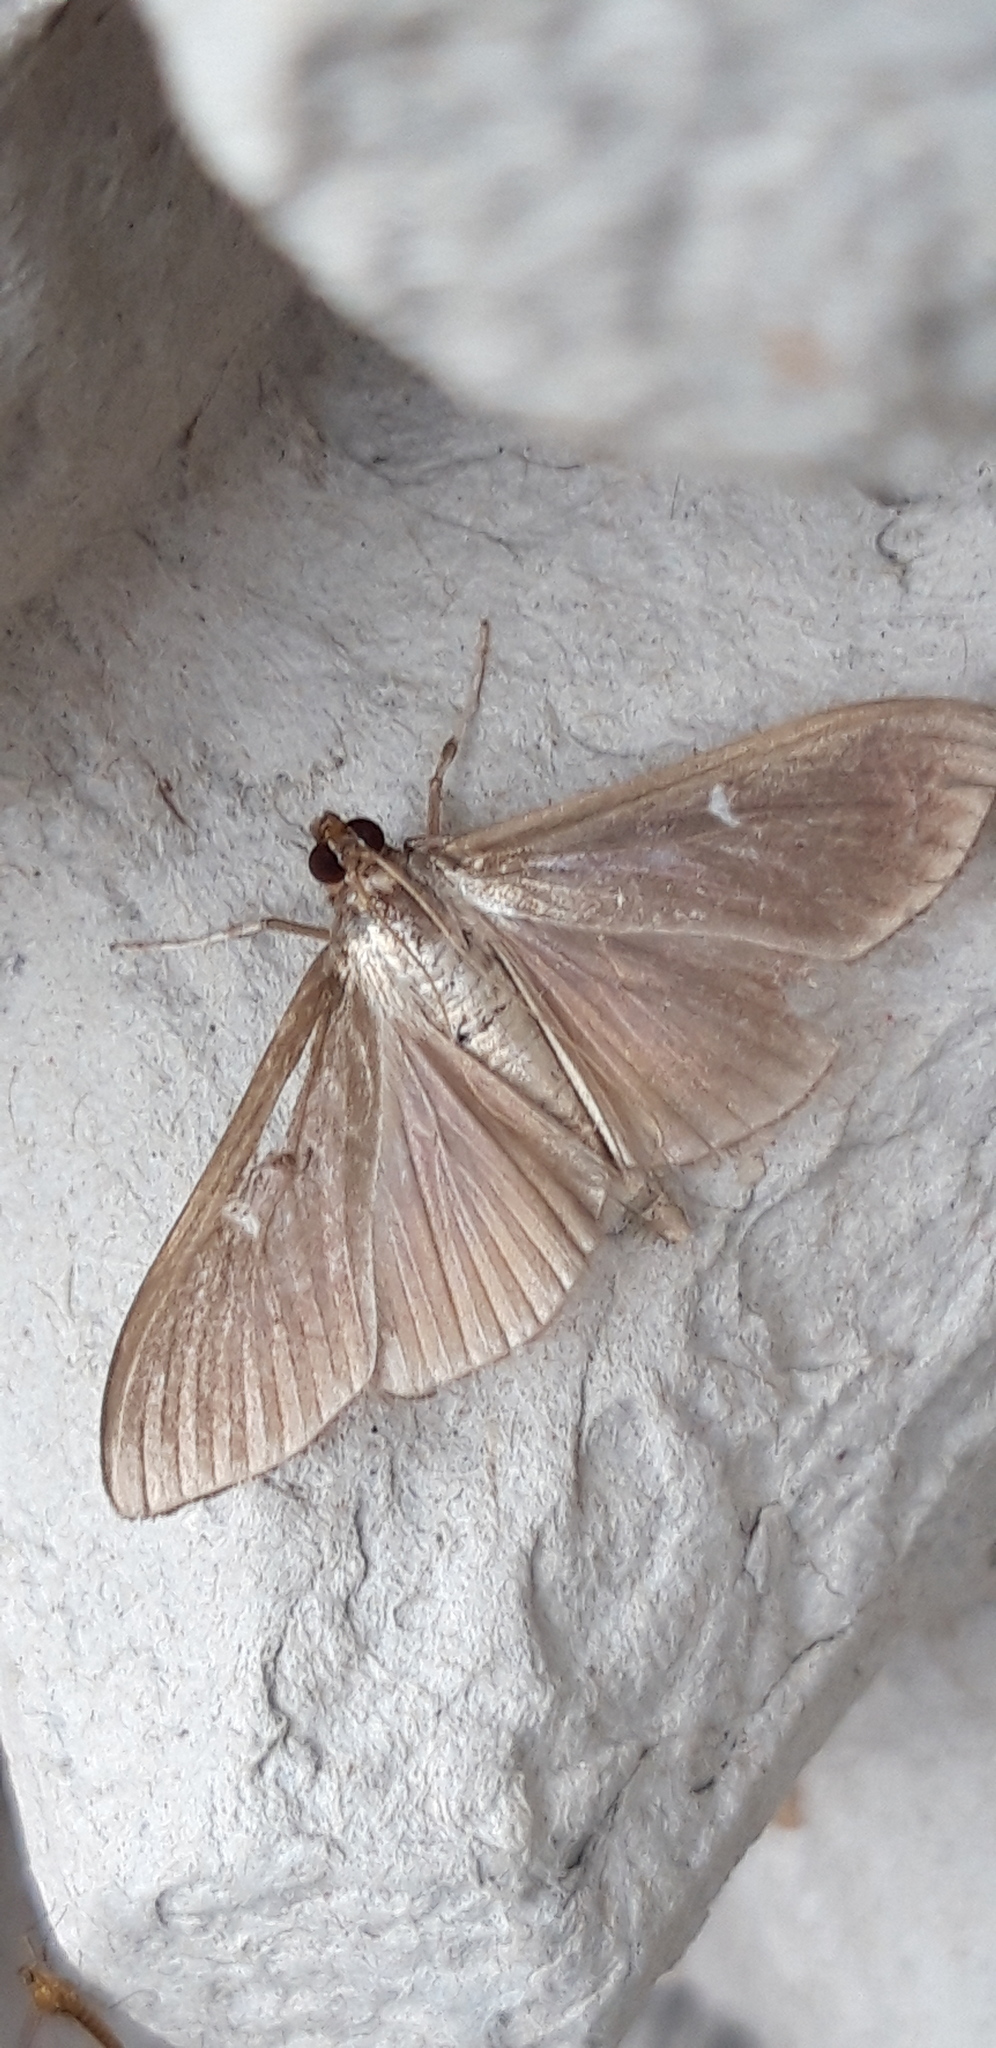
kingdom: Animalia
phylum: Arthropoda
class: Insecta
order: Lepidoptera
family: Crambidae
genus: Cydalima
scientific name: Cydalima perspectalis
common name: Box tree moth
